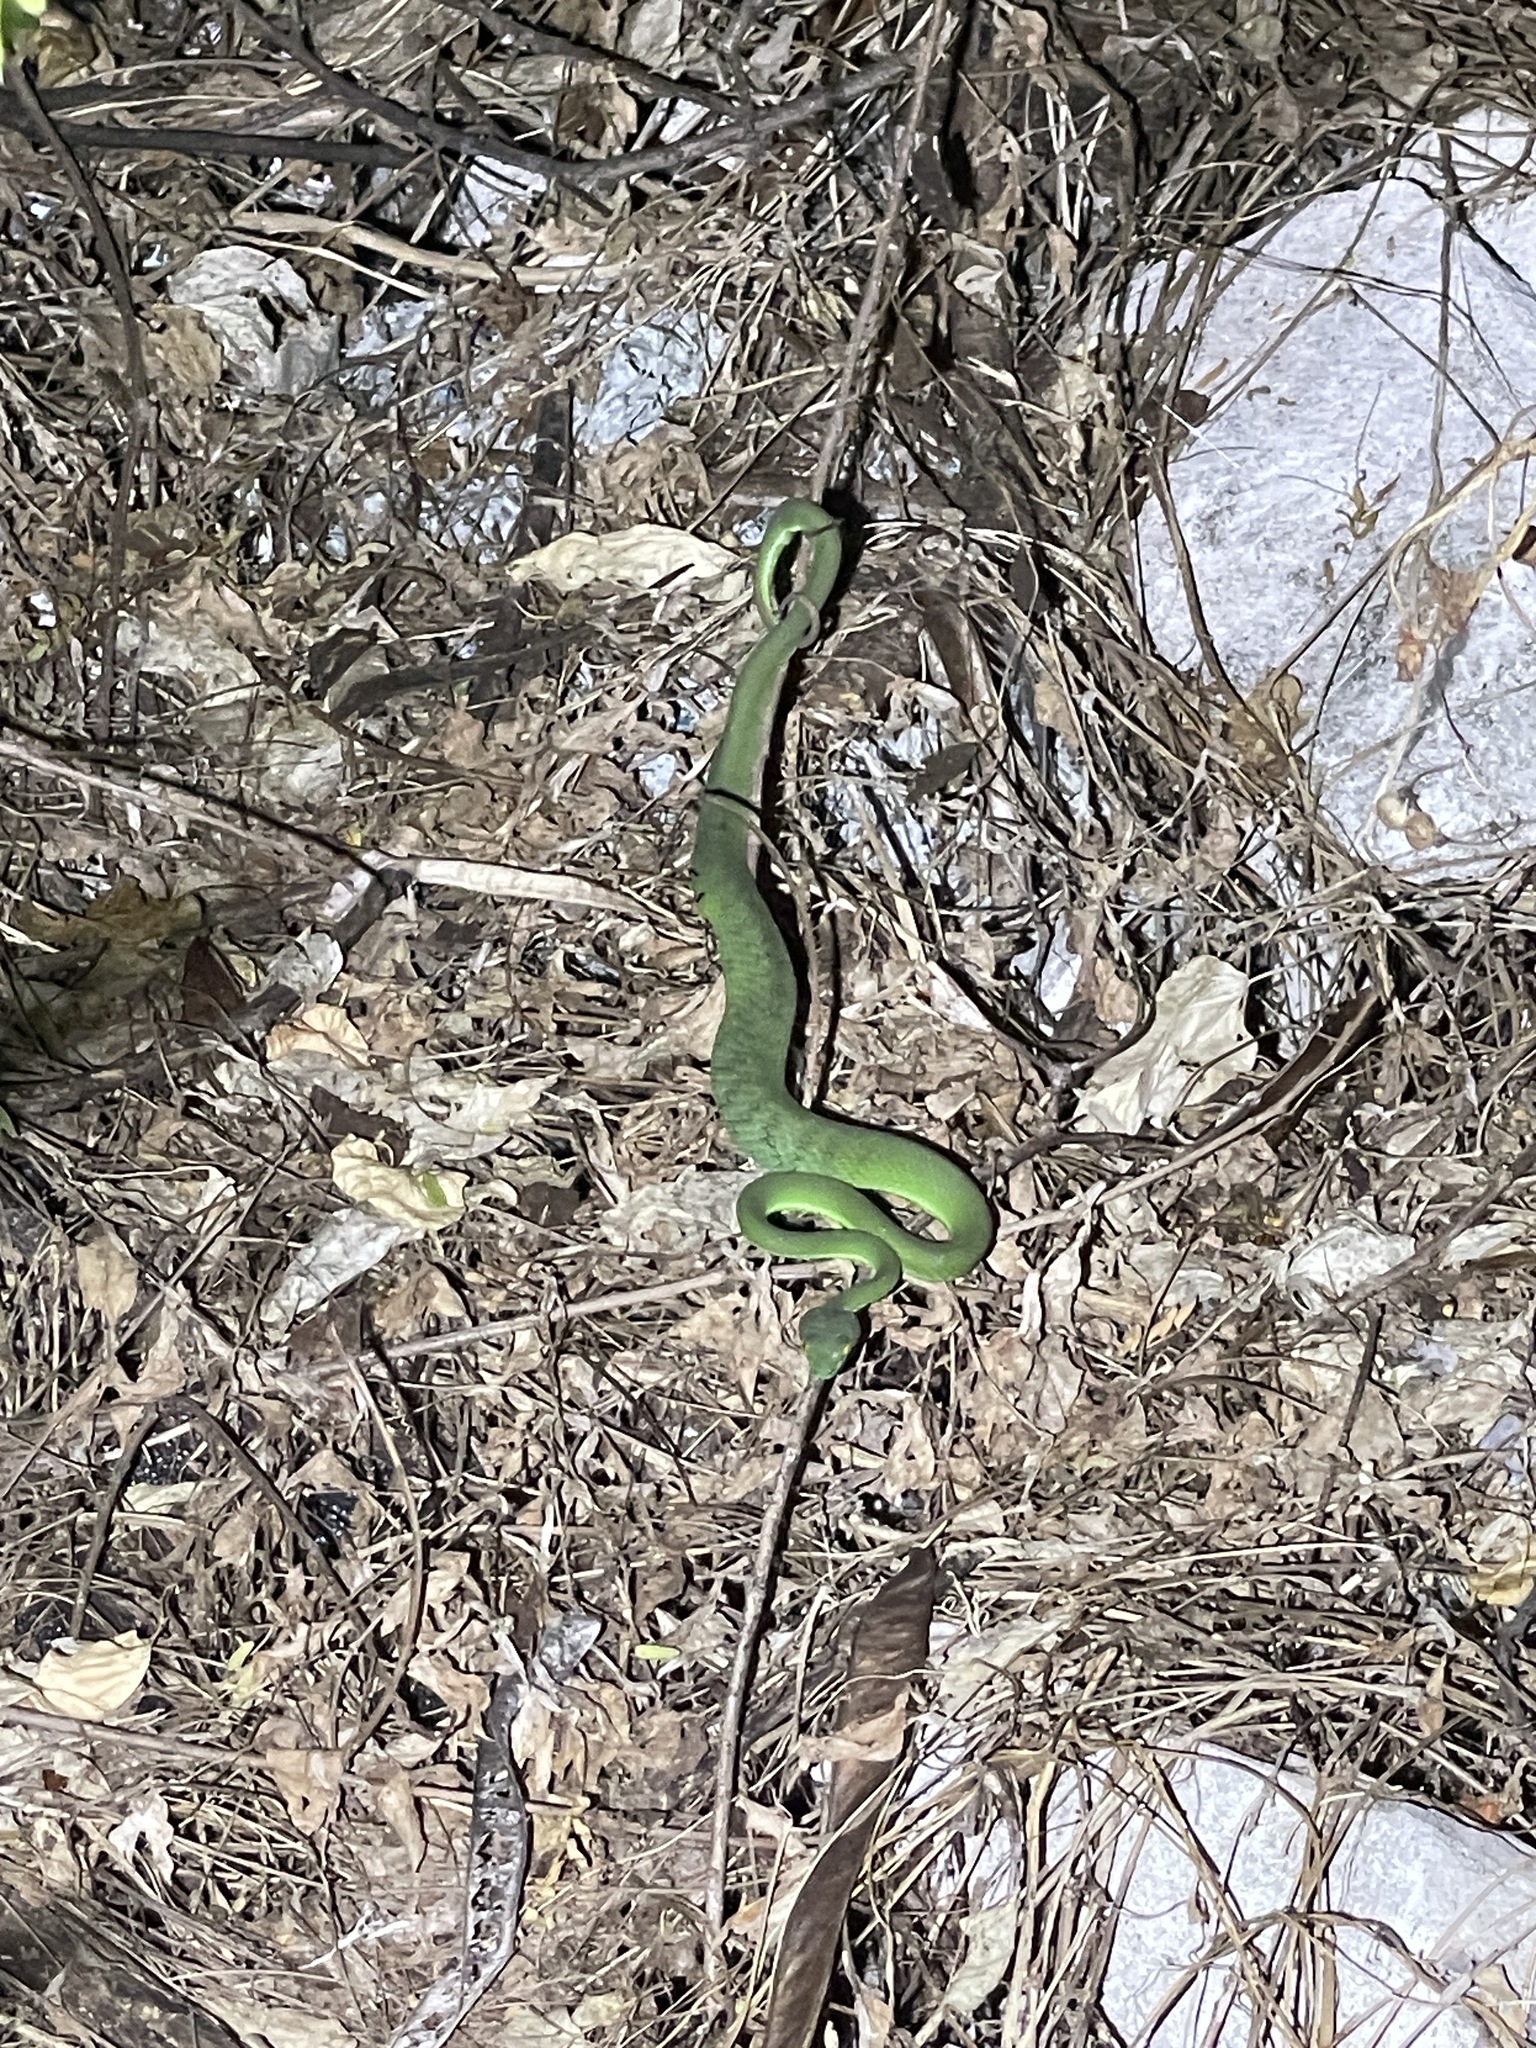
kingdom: Animalia
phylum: Chordata
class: Squamata
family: Viperidae
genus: Trimeresurus
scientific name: Trimeresurus macrops
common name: Kramer's pit viper
